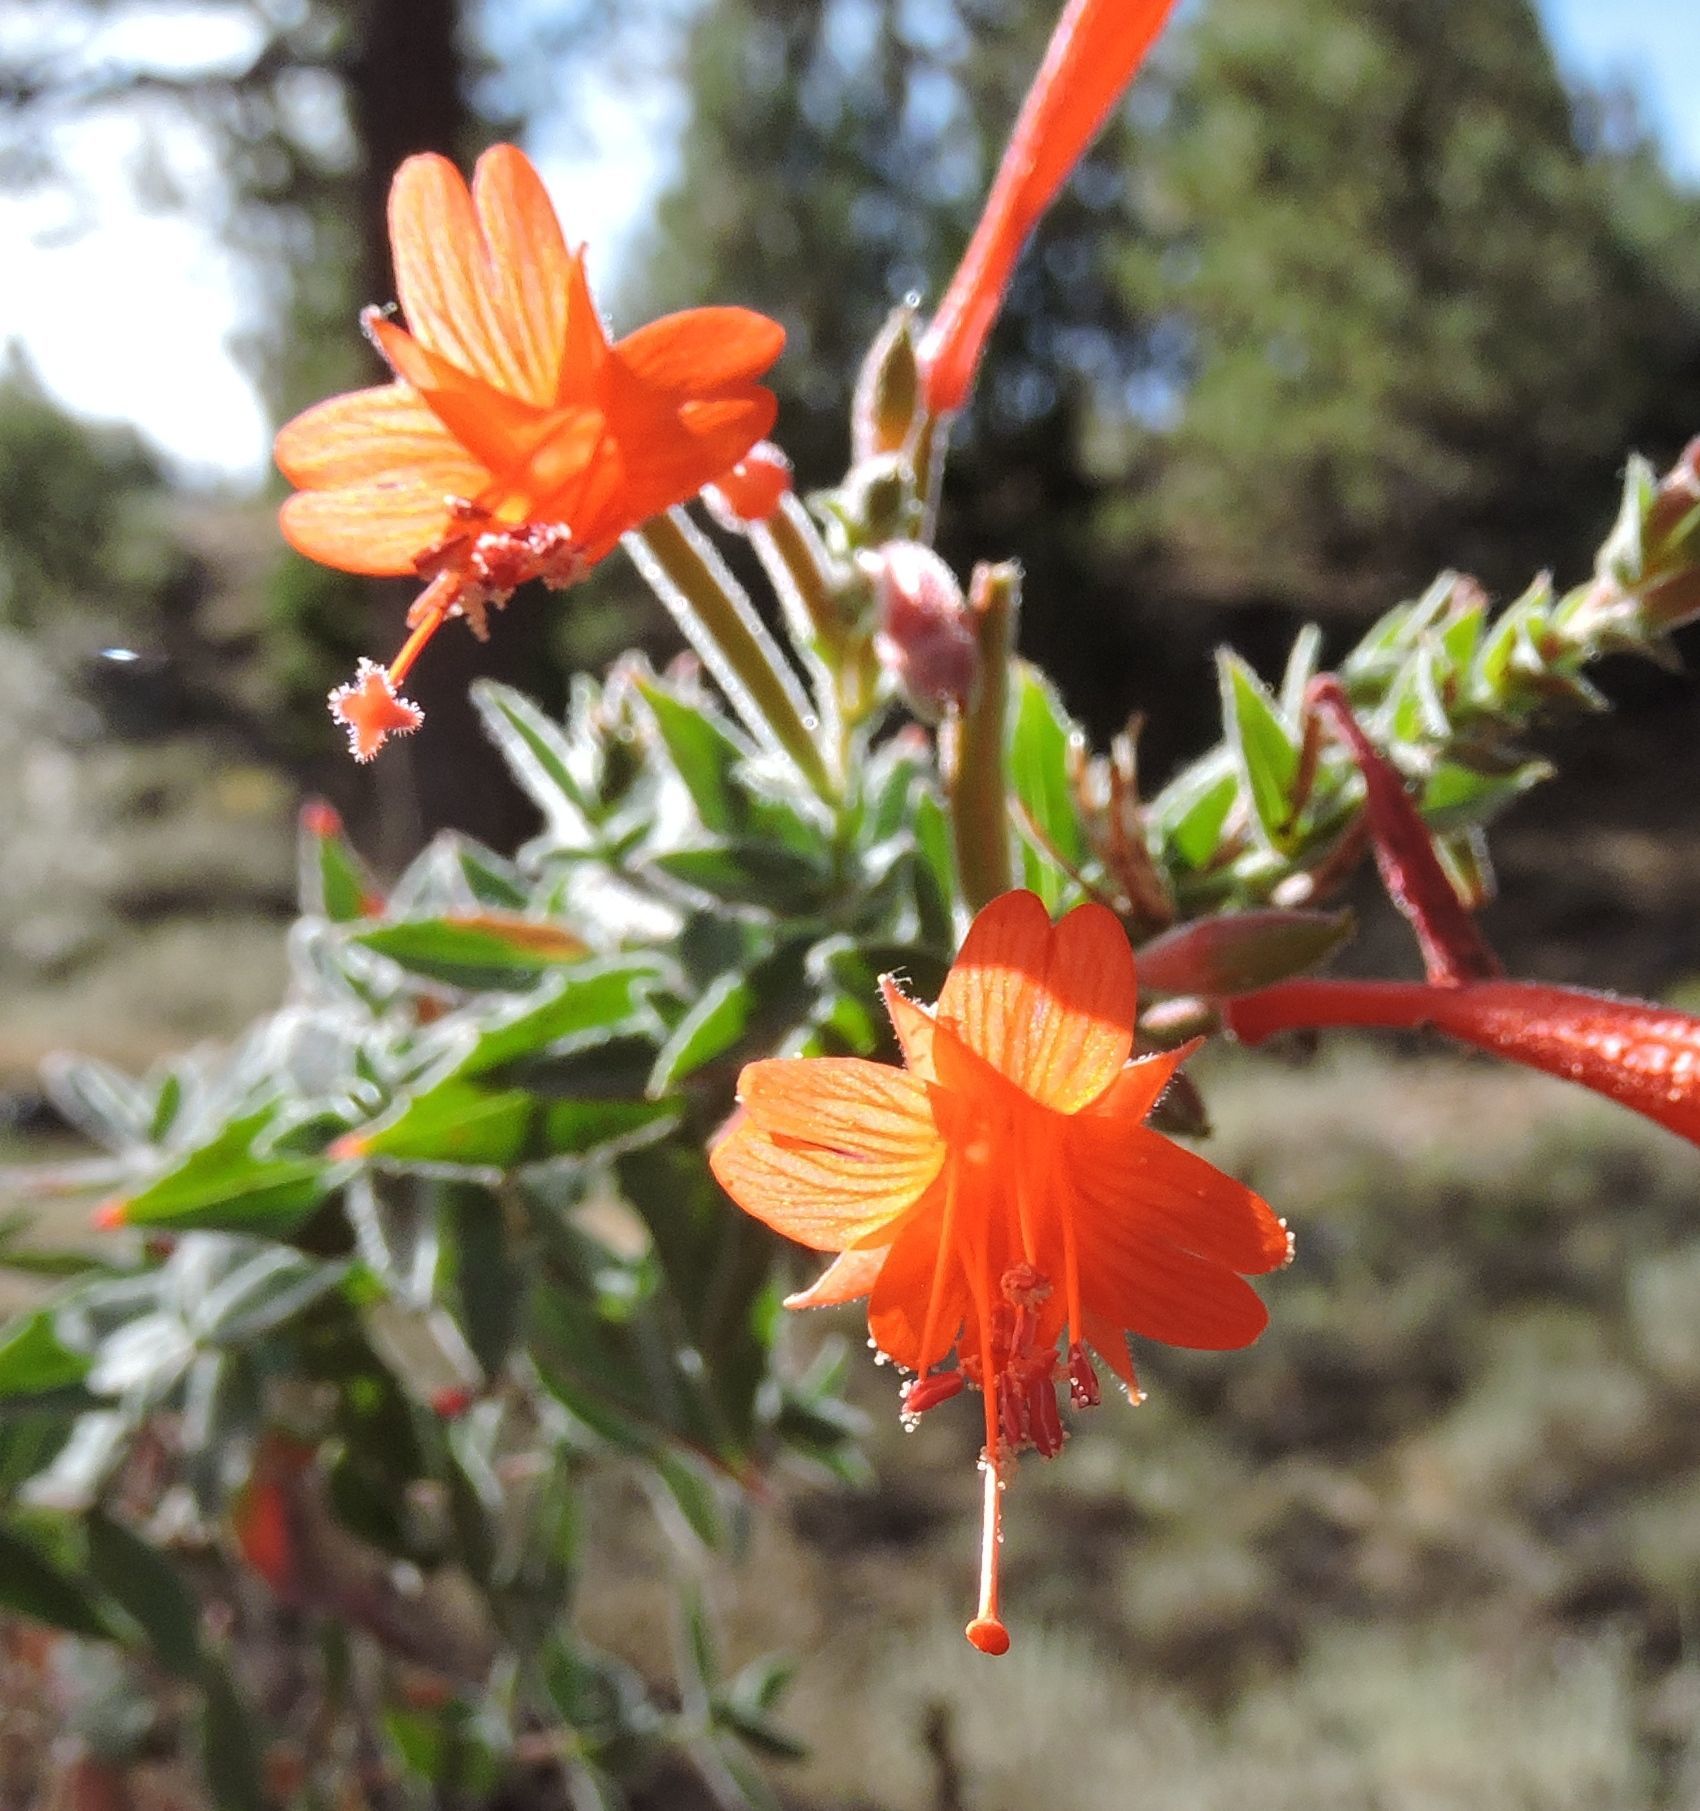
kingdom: Plantae
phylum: Tracheophyta
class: Magnoliopsida
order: Myrtales
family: Onagraceae
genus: Epilobium
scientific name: Epilobium canum
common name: California-fuchsia
